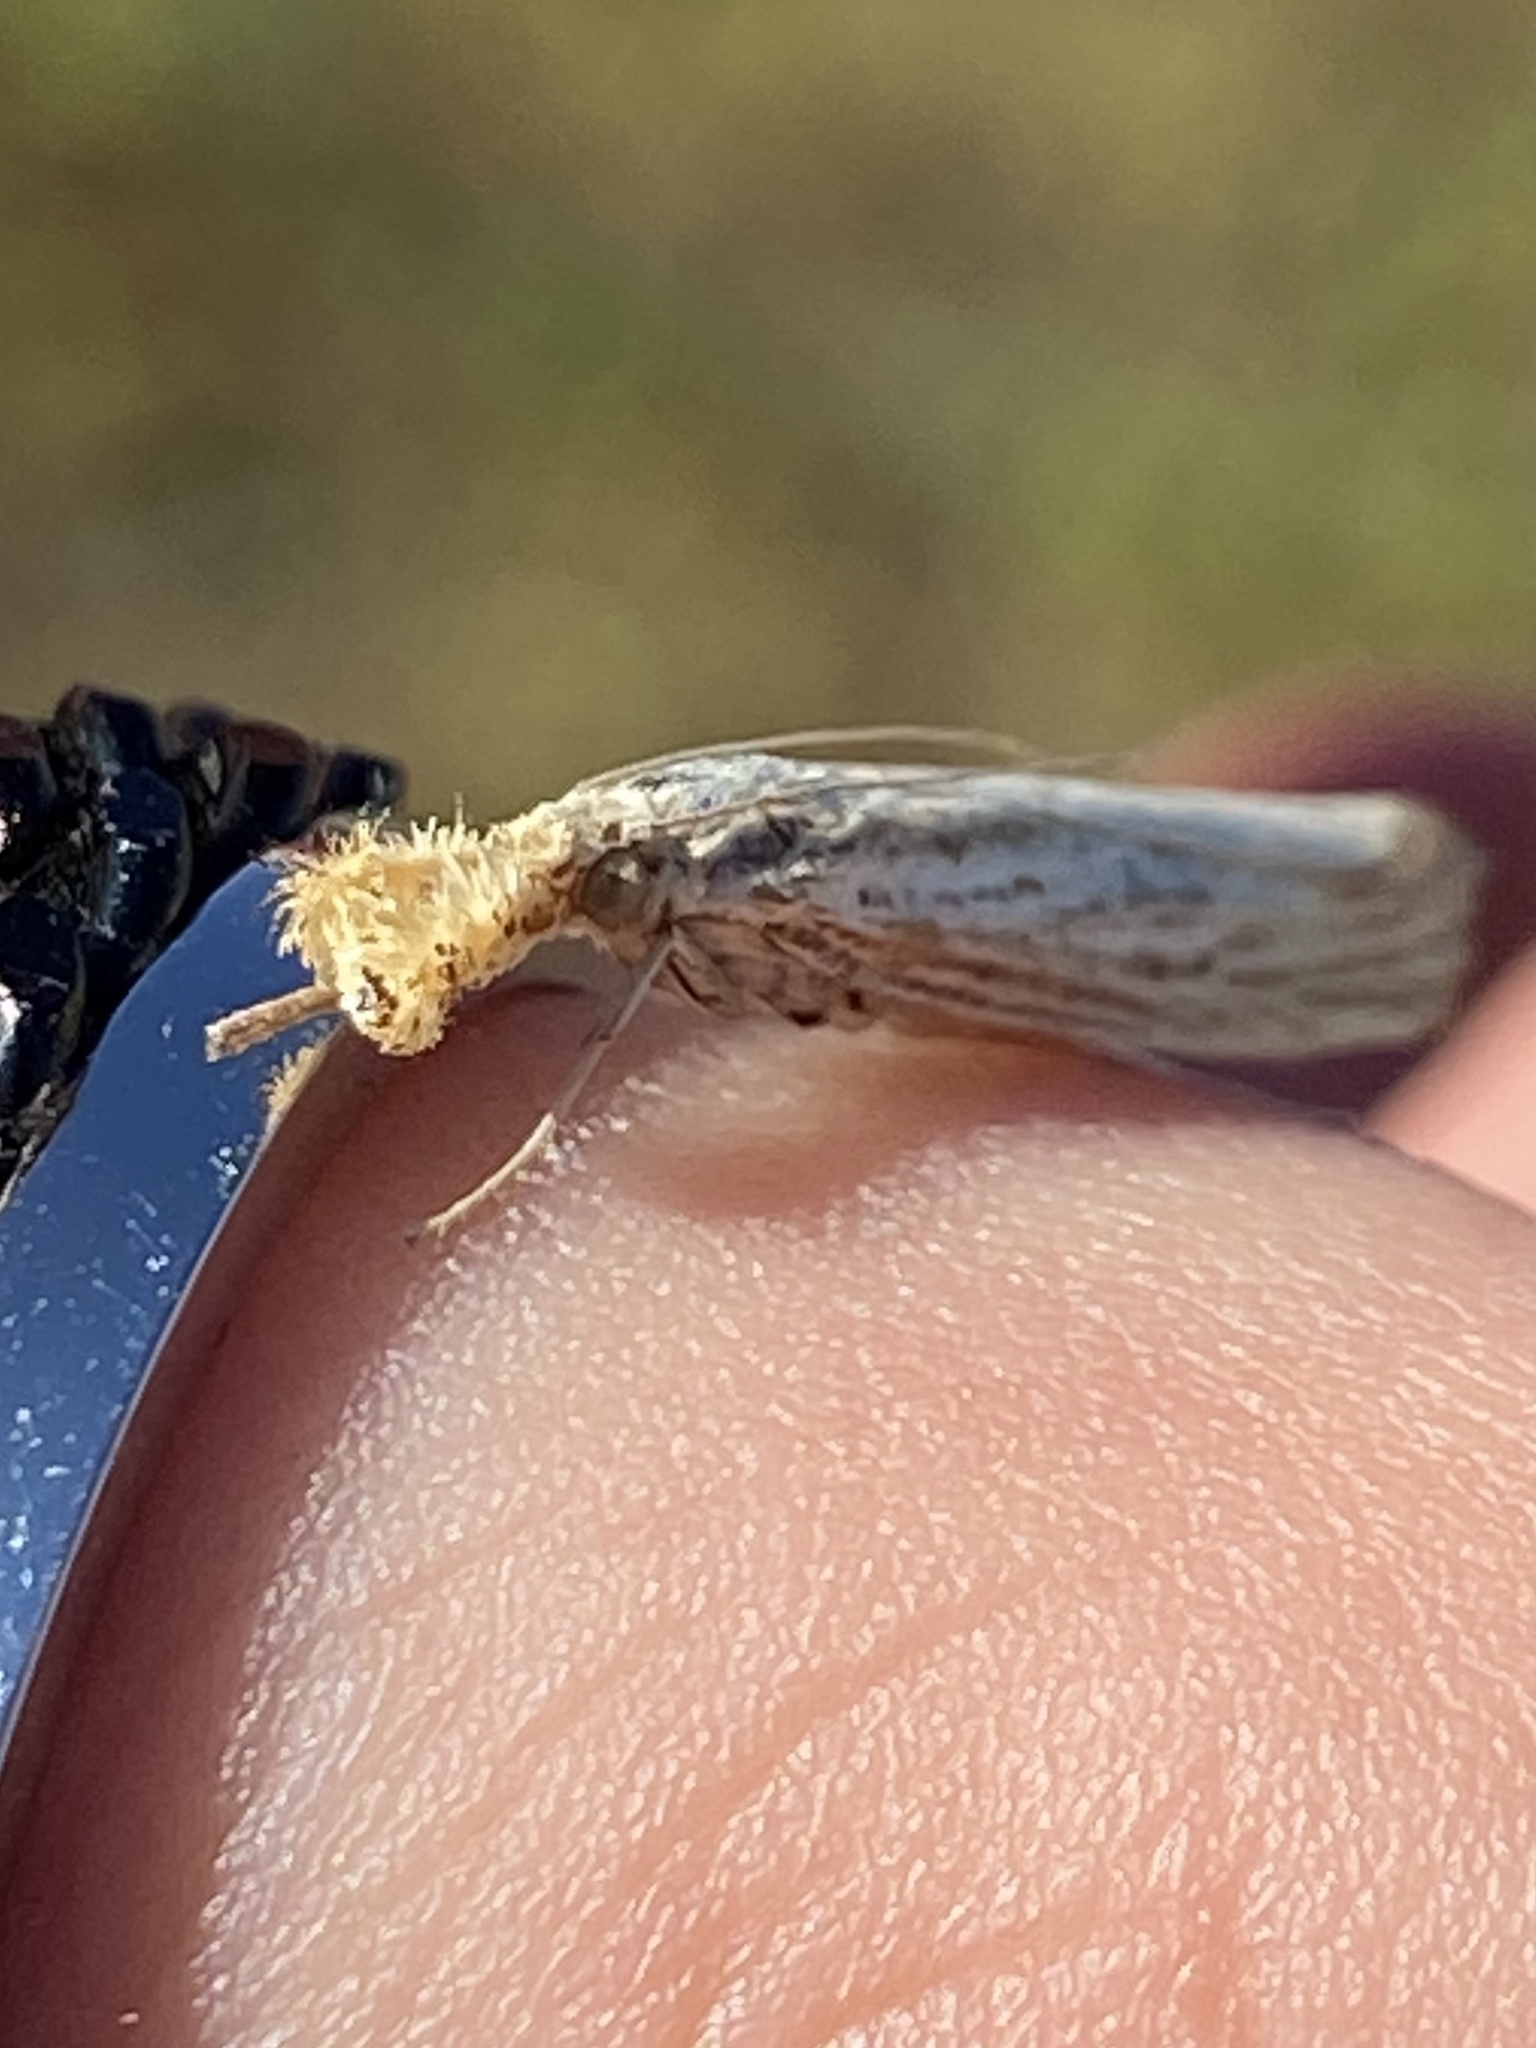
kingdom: Animalia
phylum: Arthropoda
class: Insecta
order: Lepidoptera
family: Crambidae
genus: Agriphila
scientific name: Agriphila vulgivagellus
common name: Vagabond crambus moth
